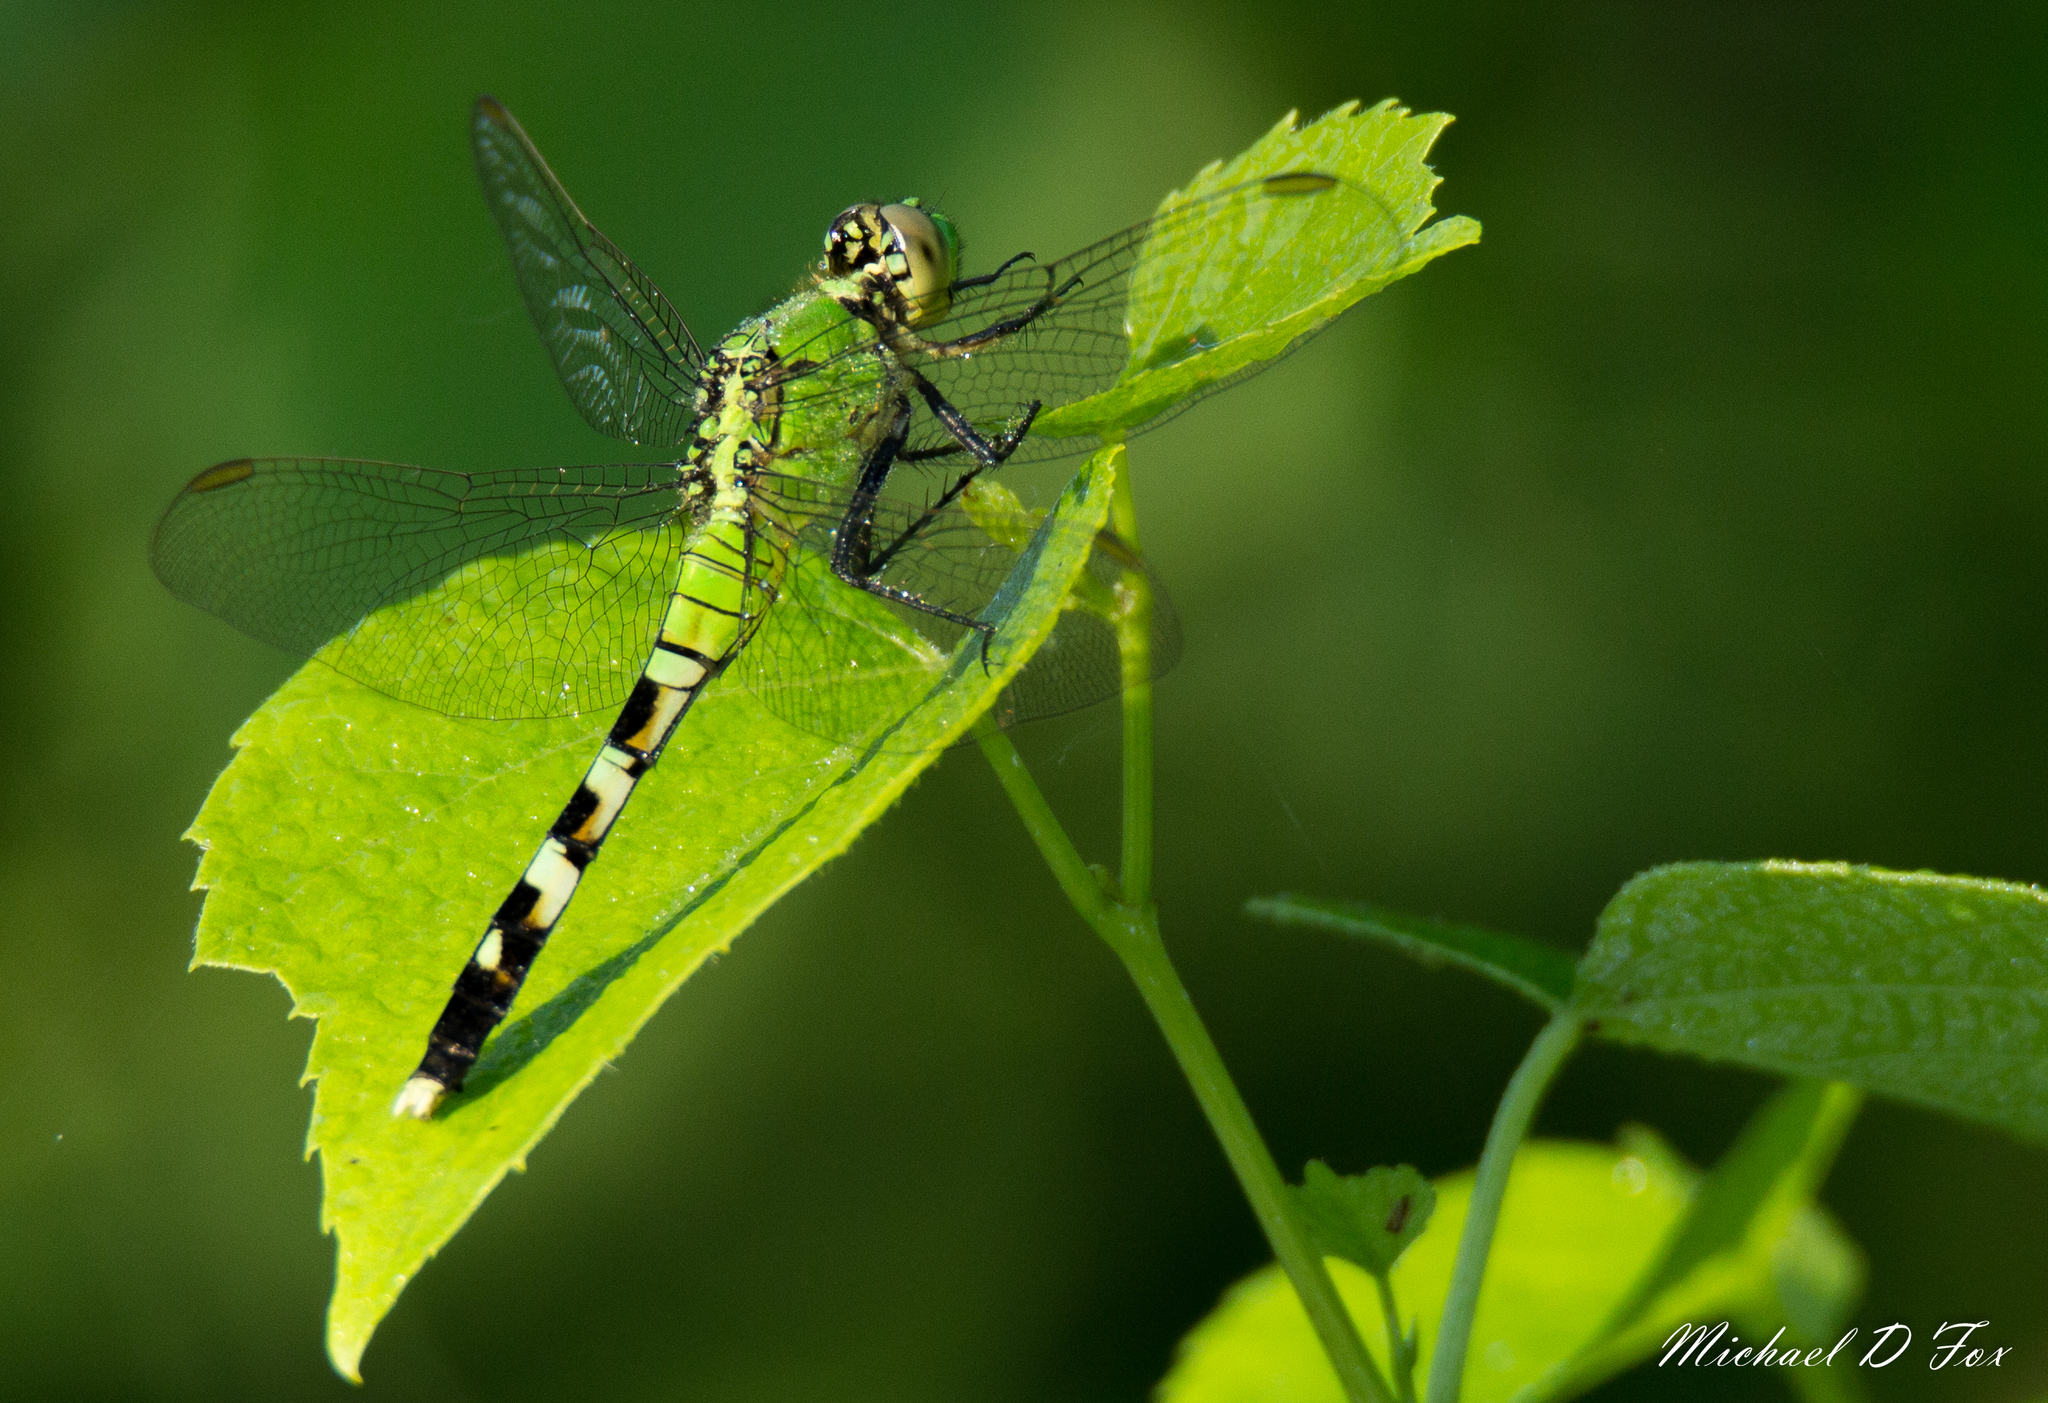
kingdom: Animalia
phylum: Arthropoda
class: Insecta
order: Odonata
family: Libellulidae
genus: Erythemis
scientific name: Erythemis simplicicollis
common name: Eastern pondhawk
